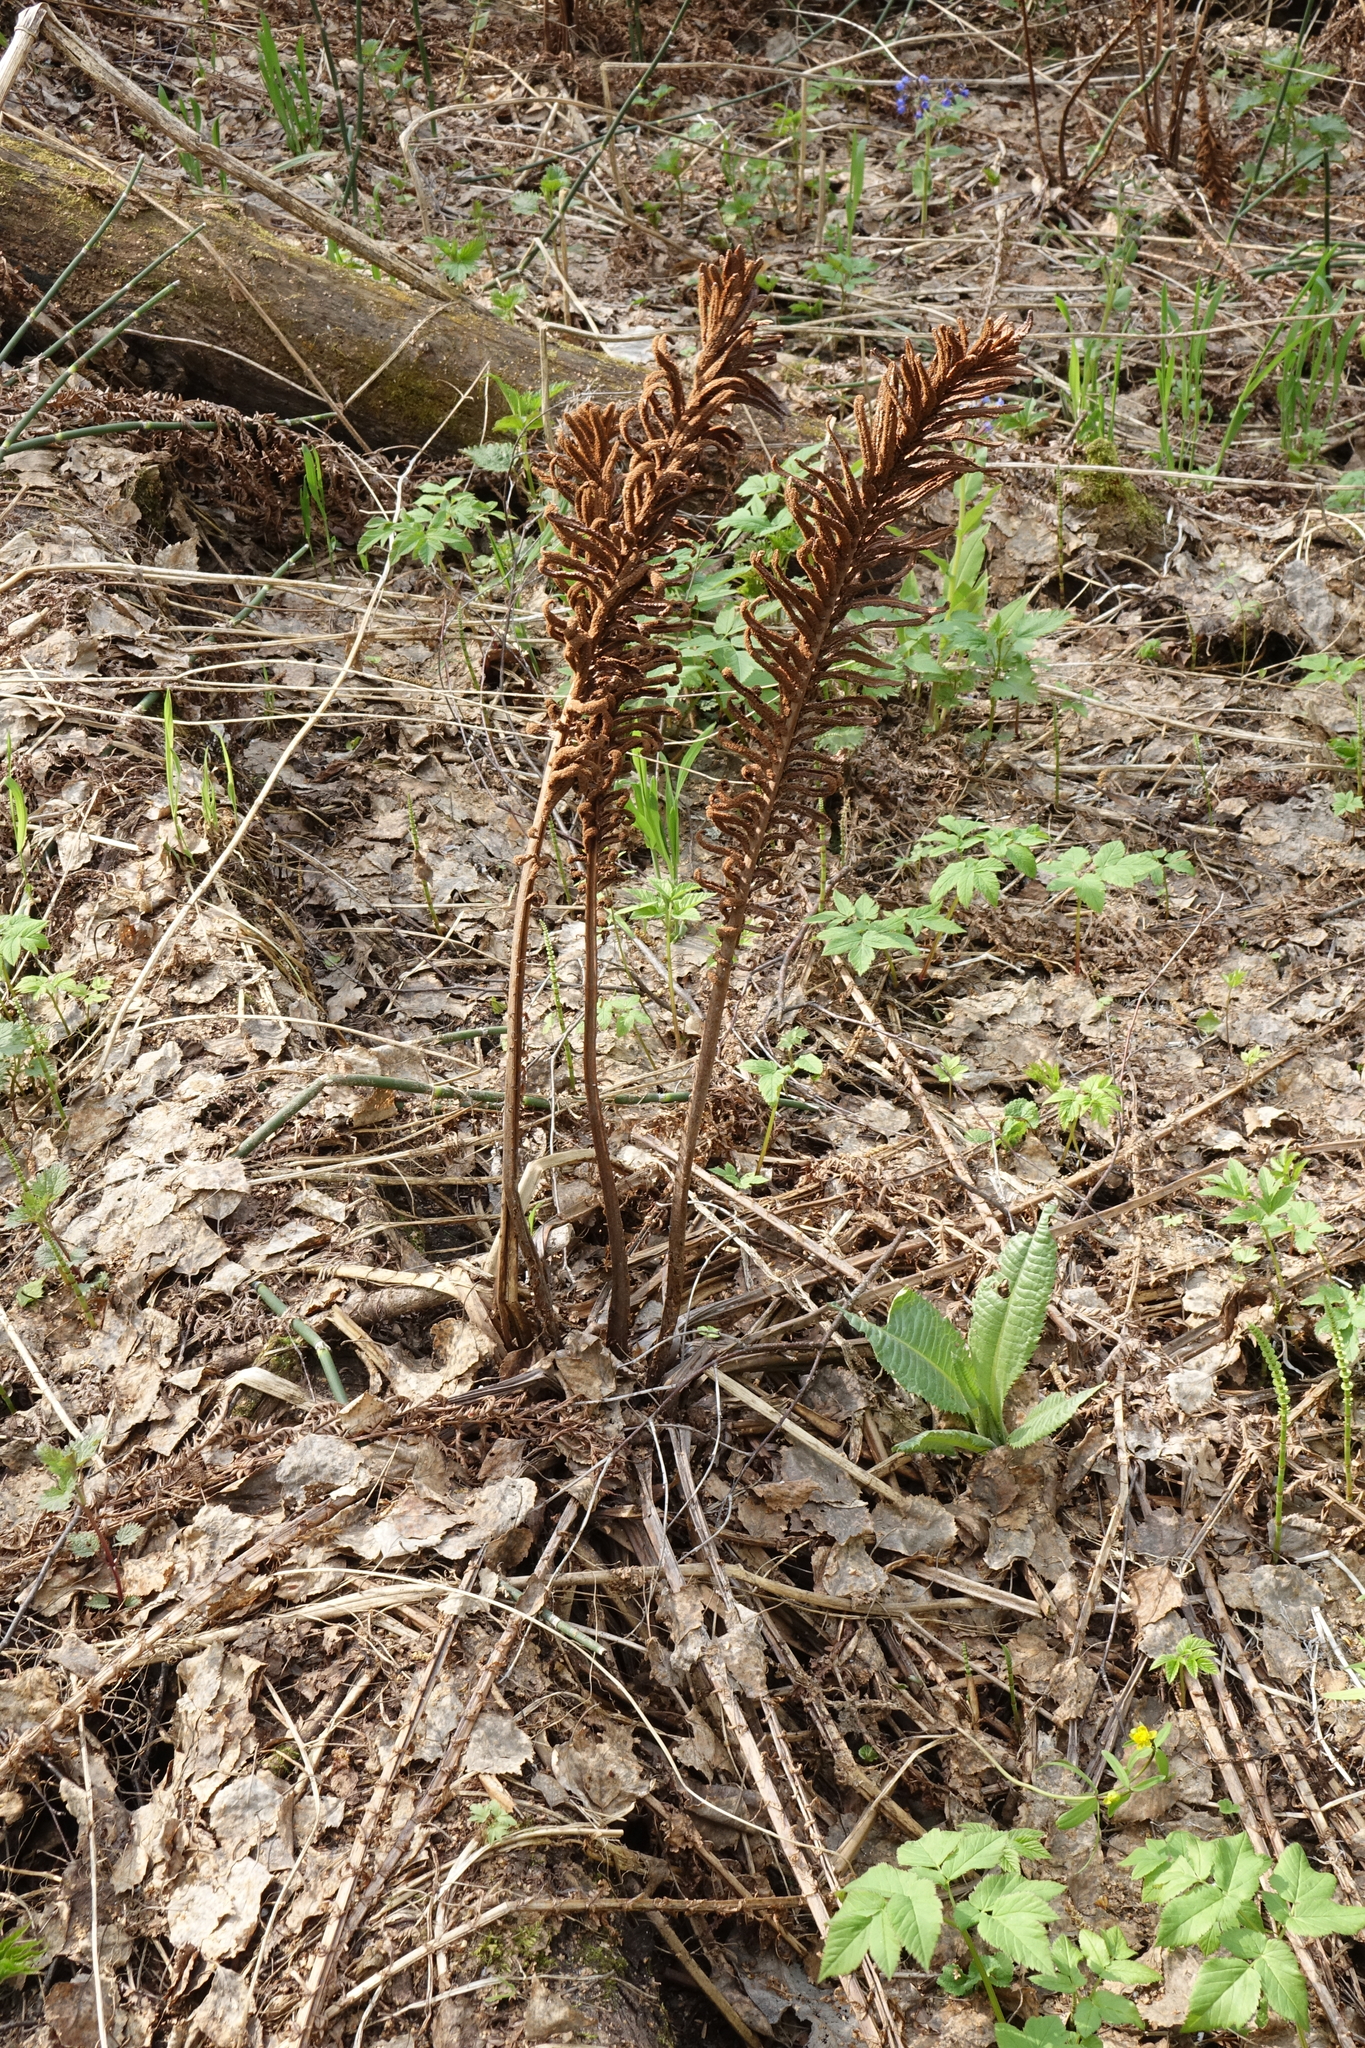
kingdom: Plantae
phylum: Tracheophyta
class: Polypodiopsida
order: Polypodiales
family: Onocleaceae
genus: Matteuccia
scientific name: Matteuccia struthiopteris
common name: Ostrich fern
